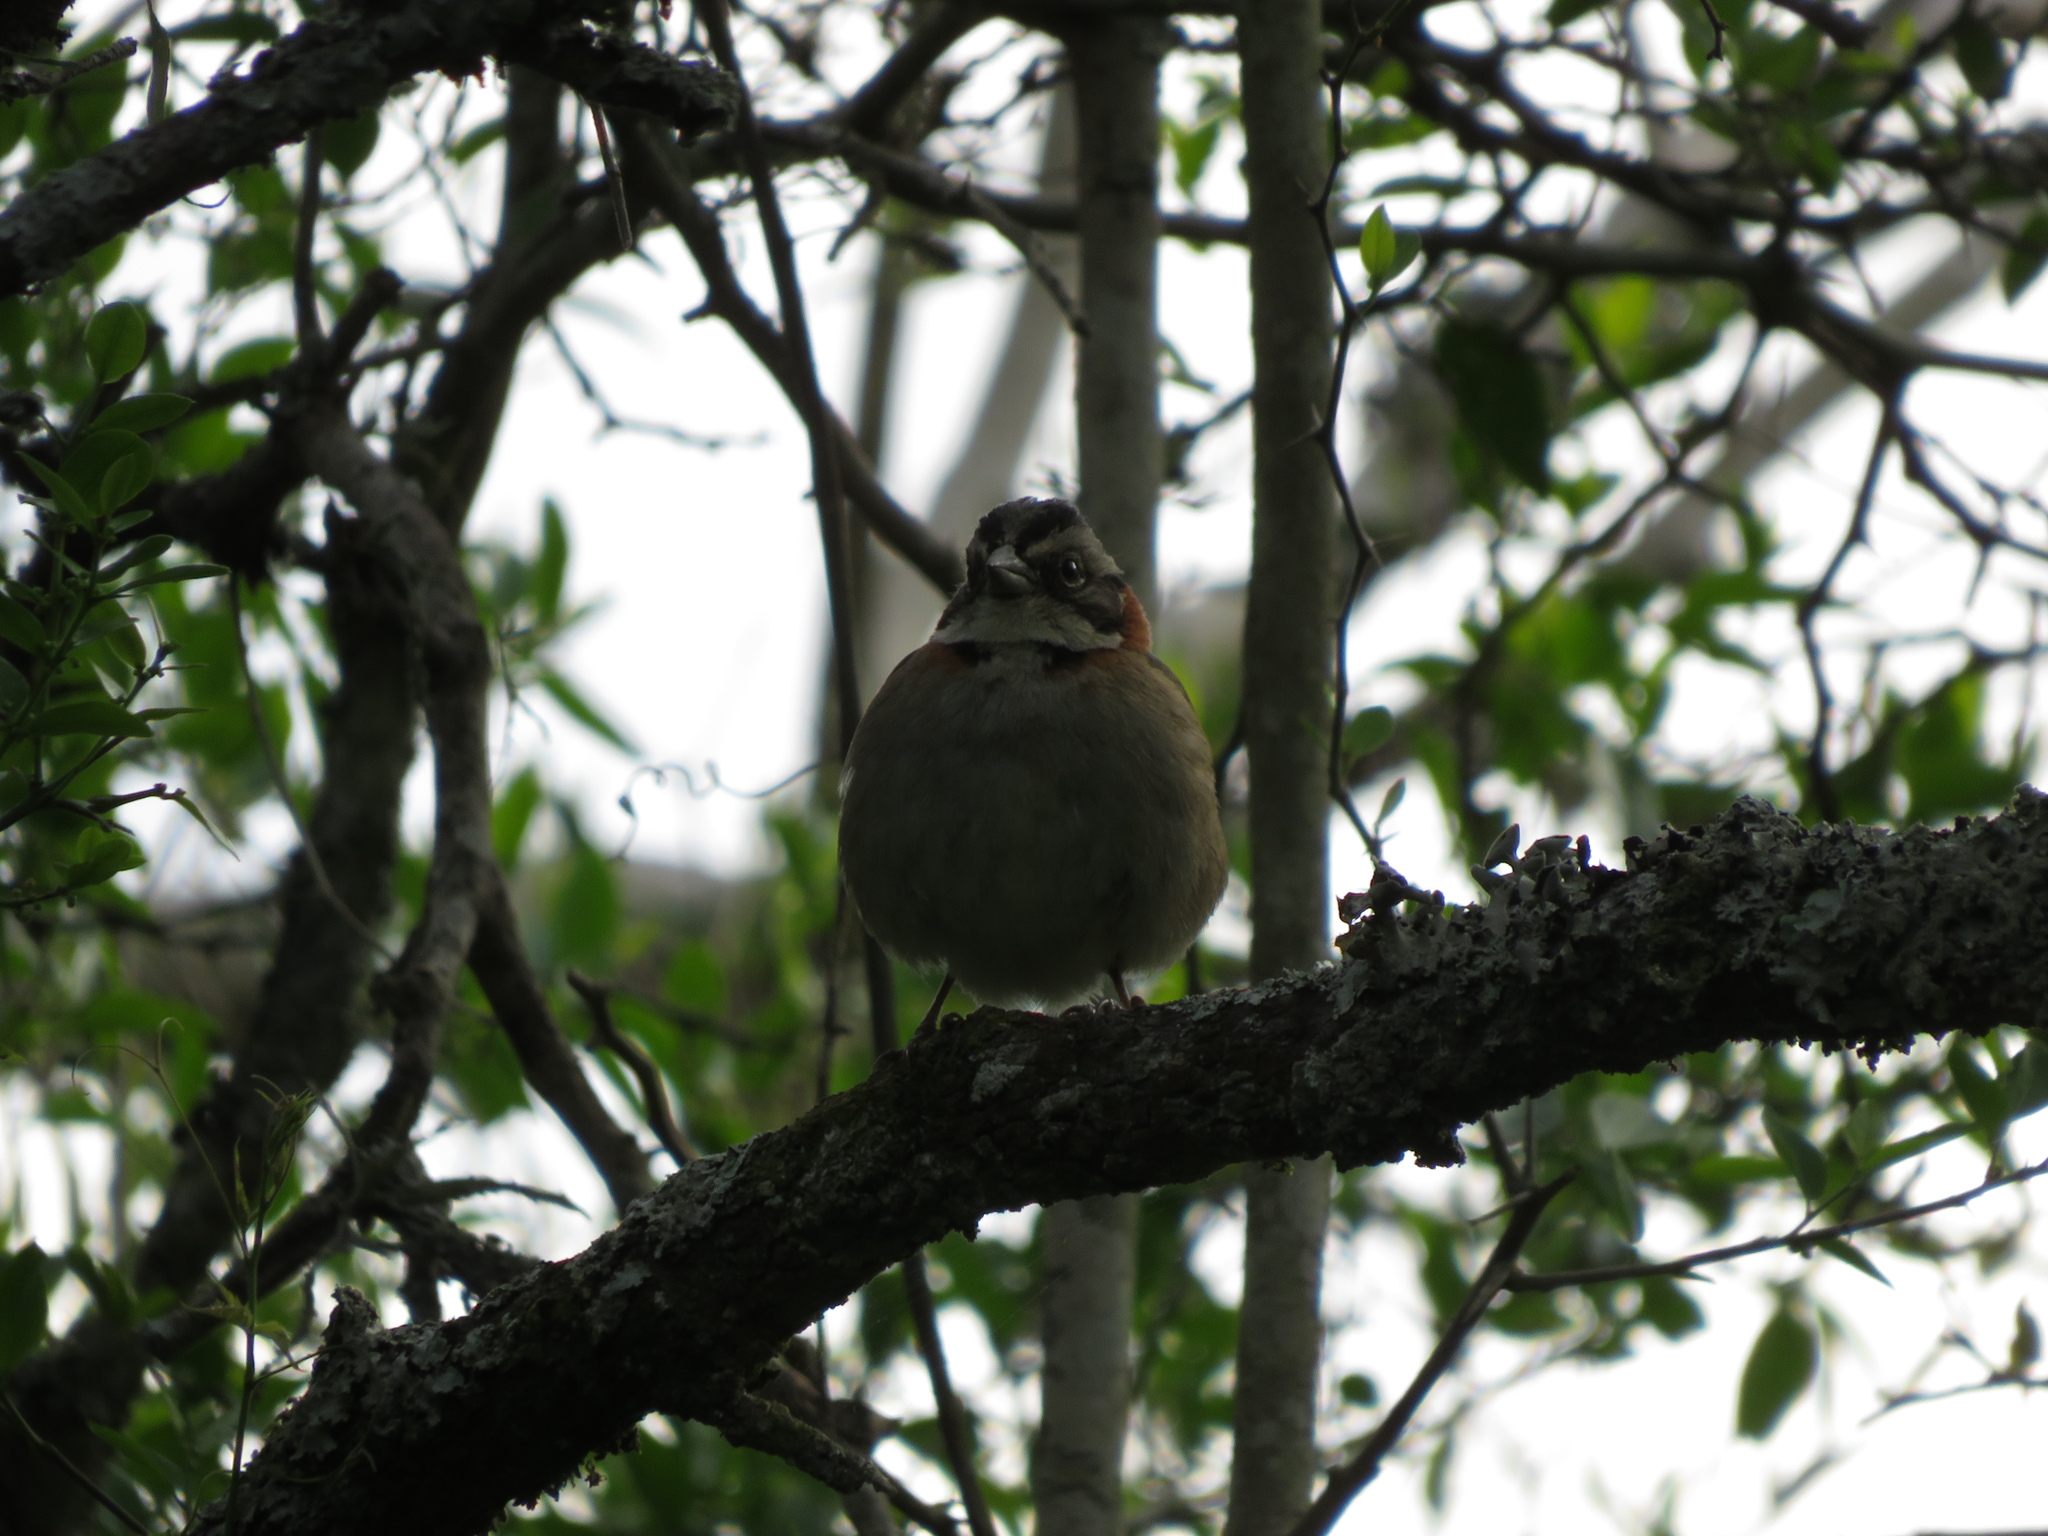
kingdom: Animalia
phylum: Chordata
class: Aves
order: Passeriformes
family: Passerellidae
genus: Zonotrichia
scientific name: Zonotrichia capensis
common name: Rufous-collared sparrow
